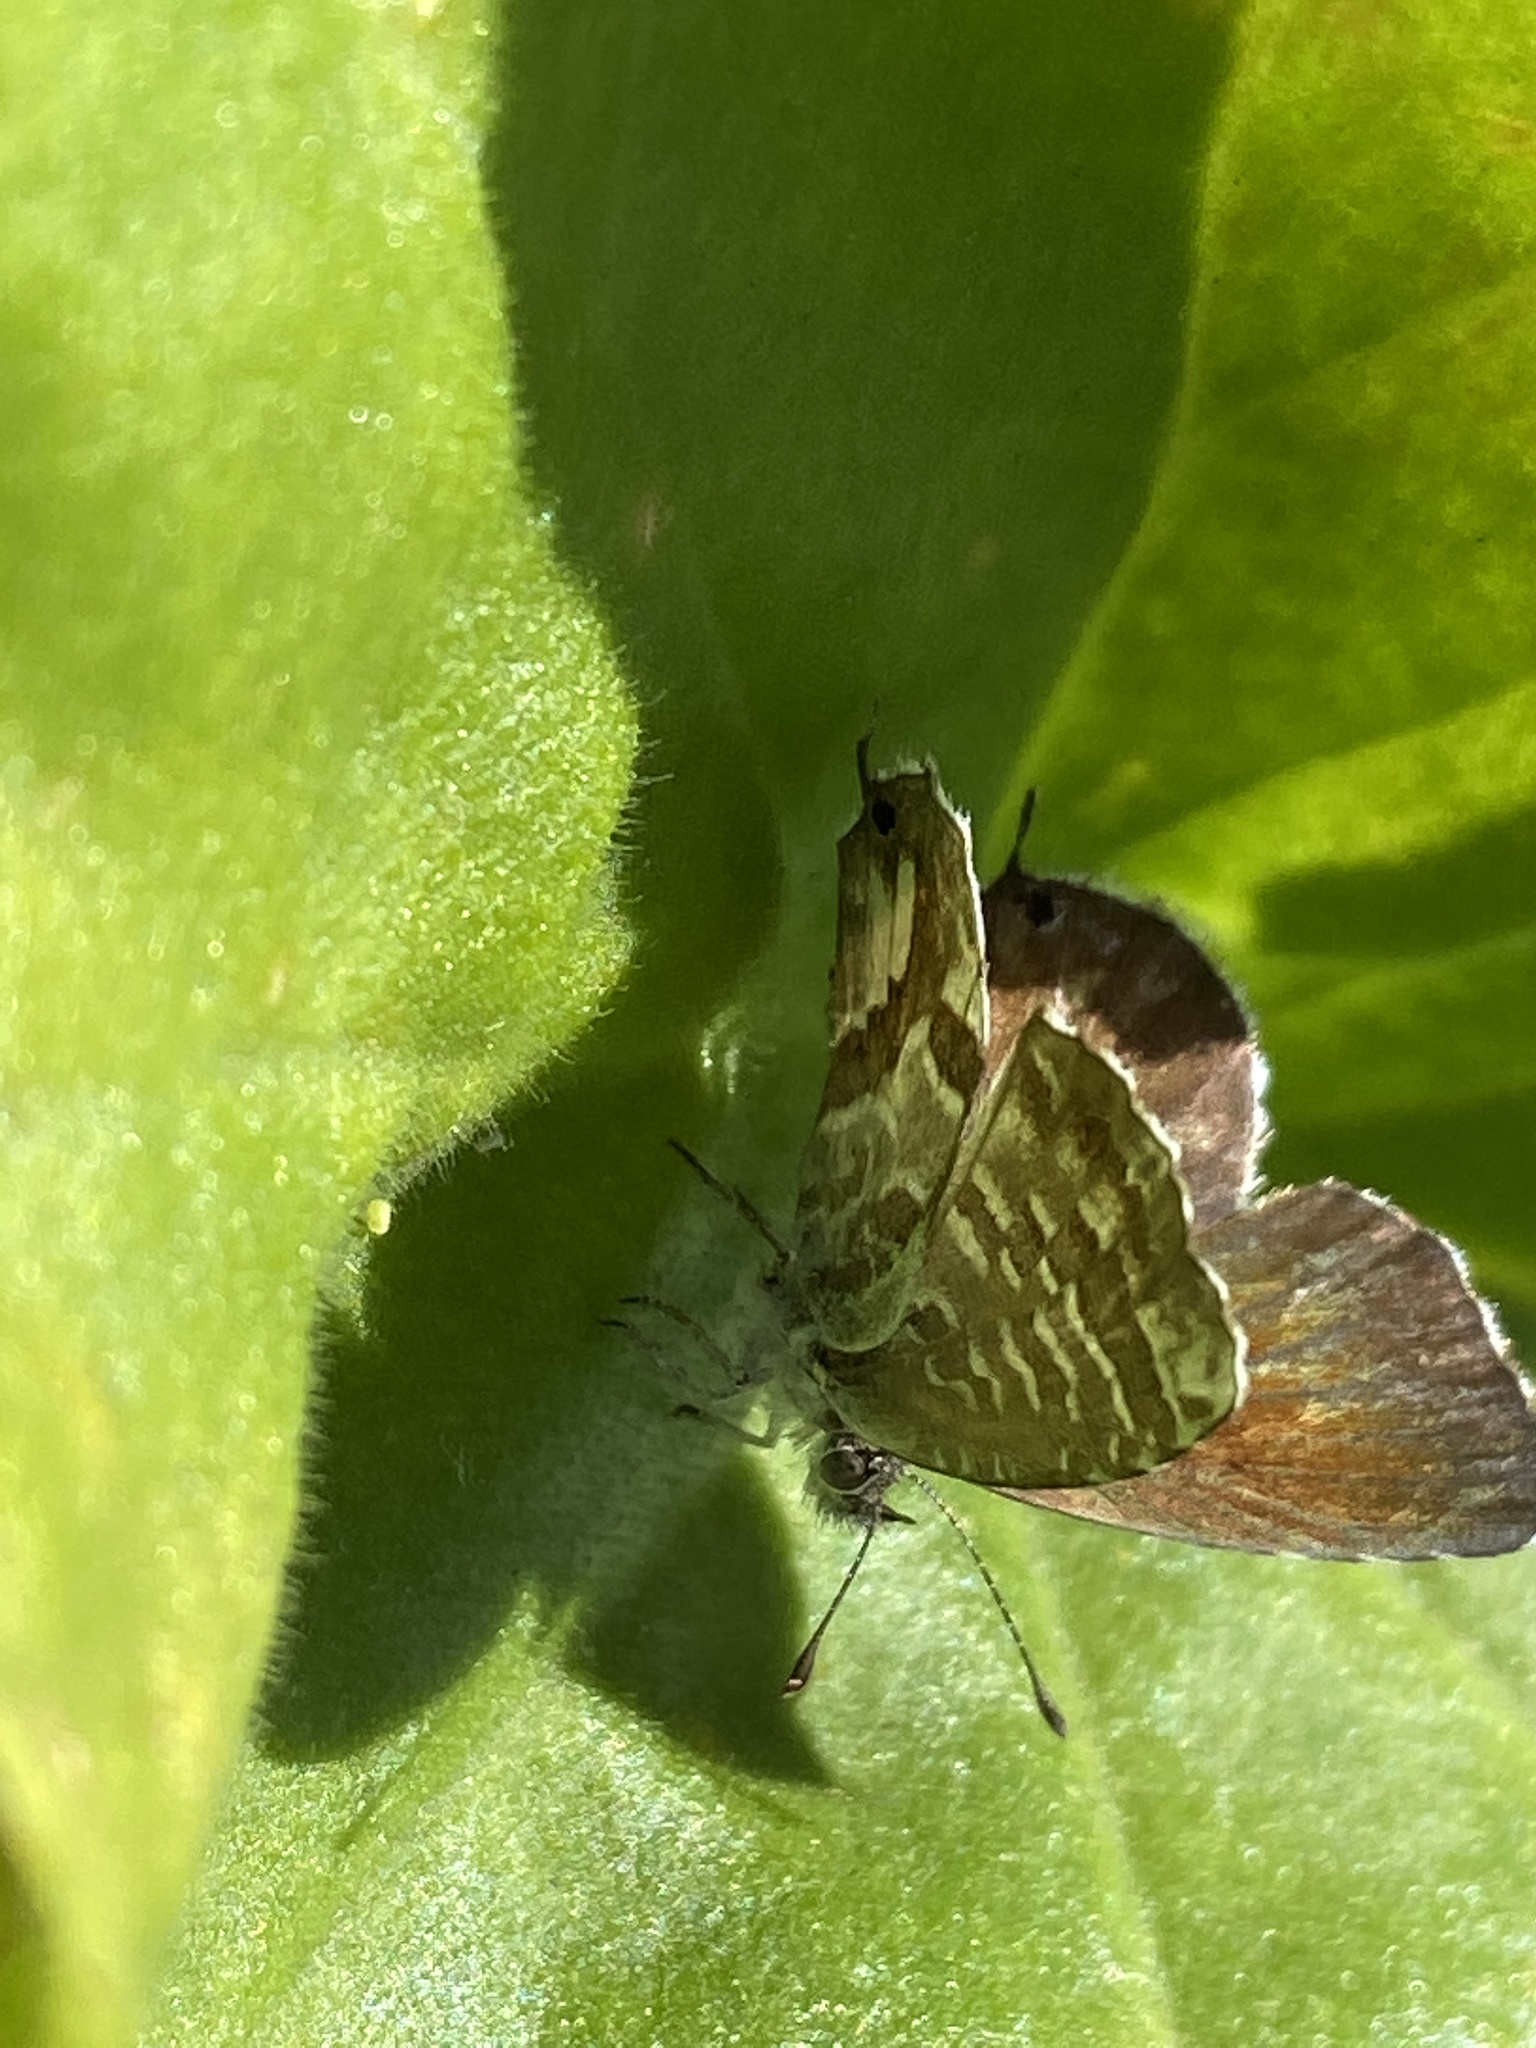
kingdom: Animalia
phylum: Arthropoda
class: Insecta
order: Lepidoptera
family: Lycaenidae
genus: Cacyreus
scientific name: Cacyreus marshalli
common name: Geranium bronze
